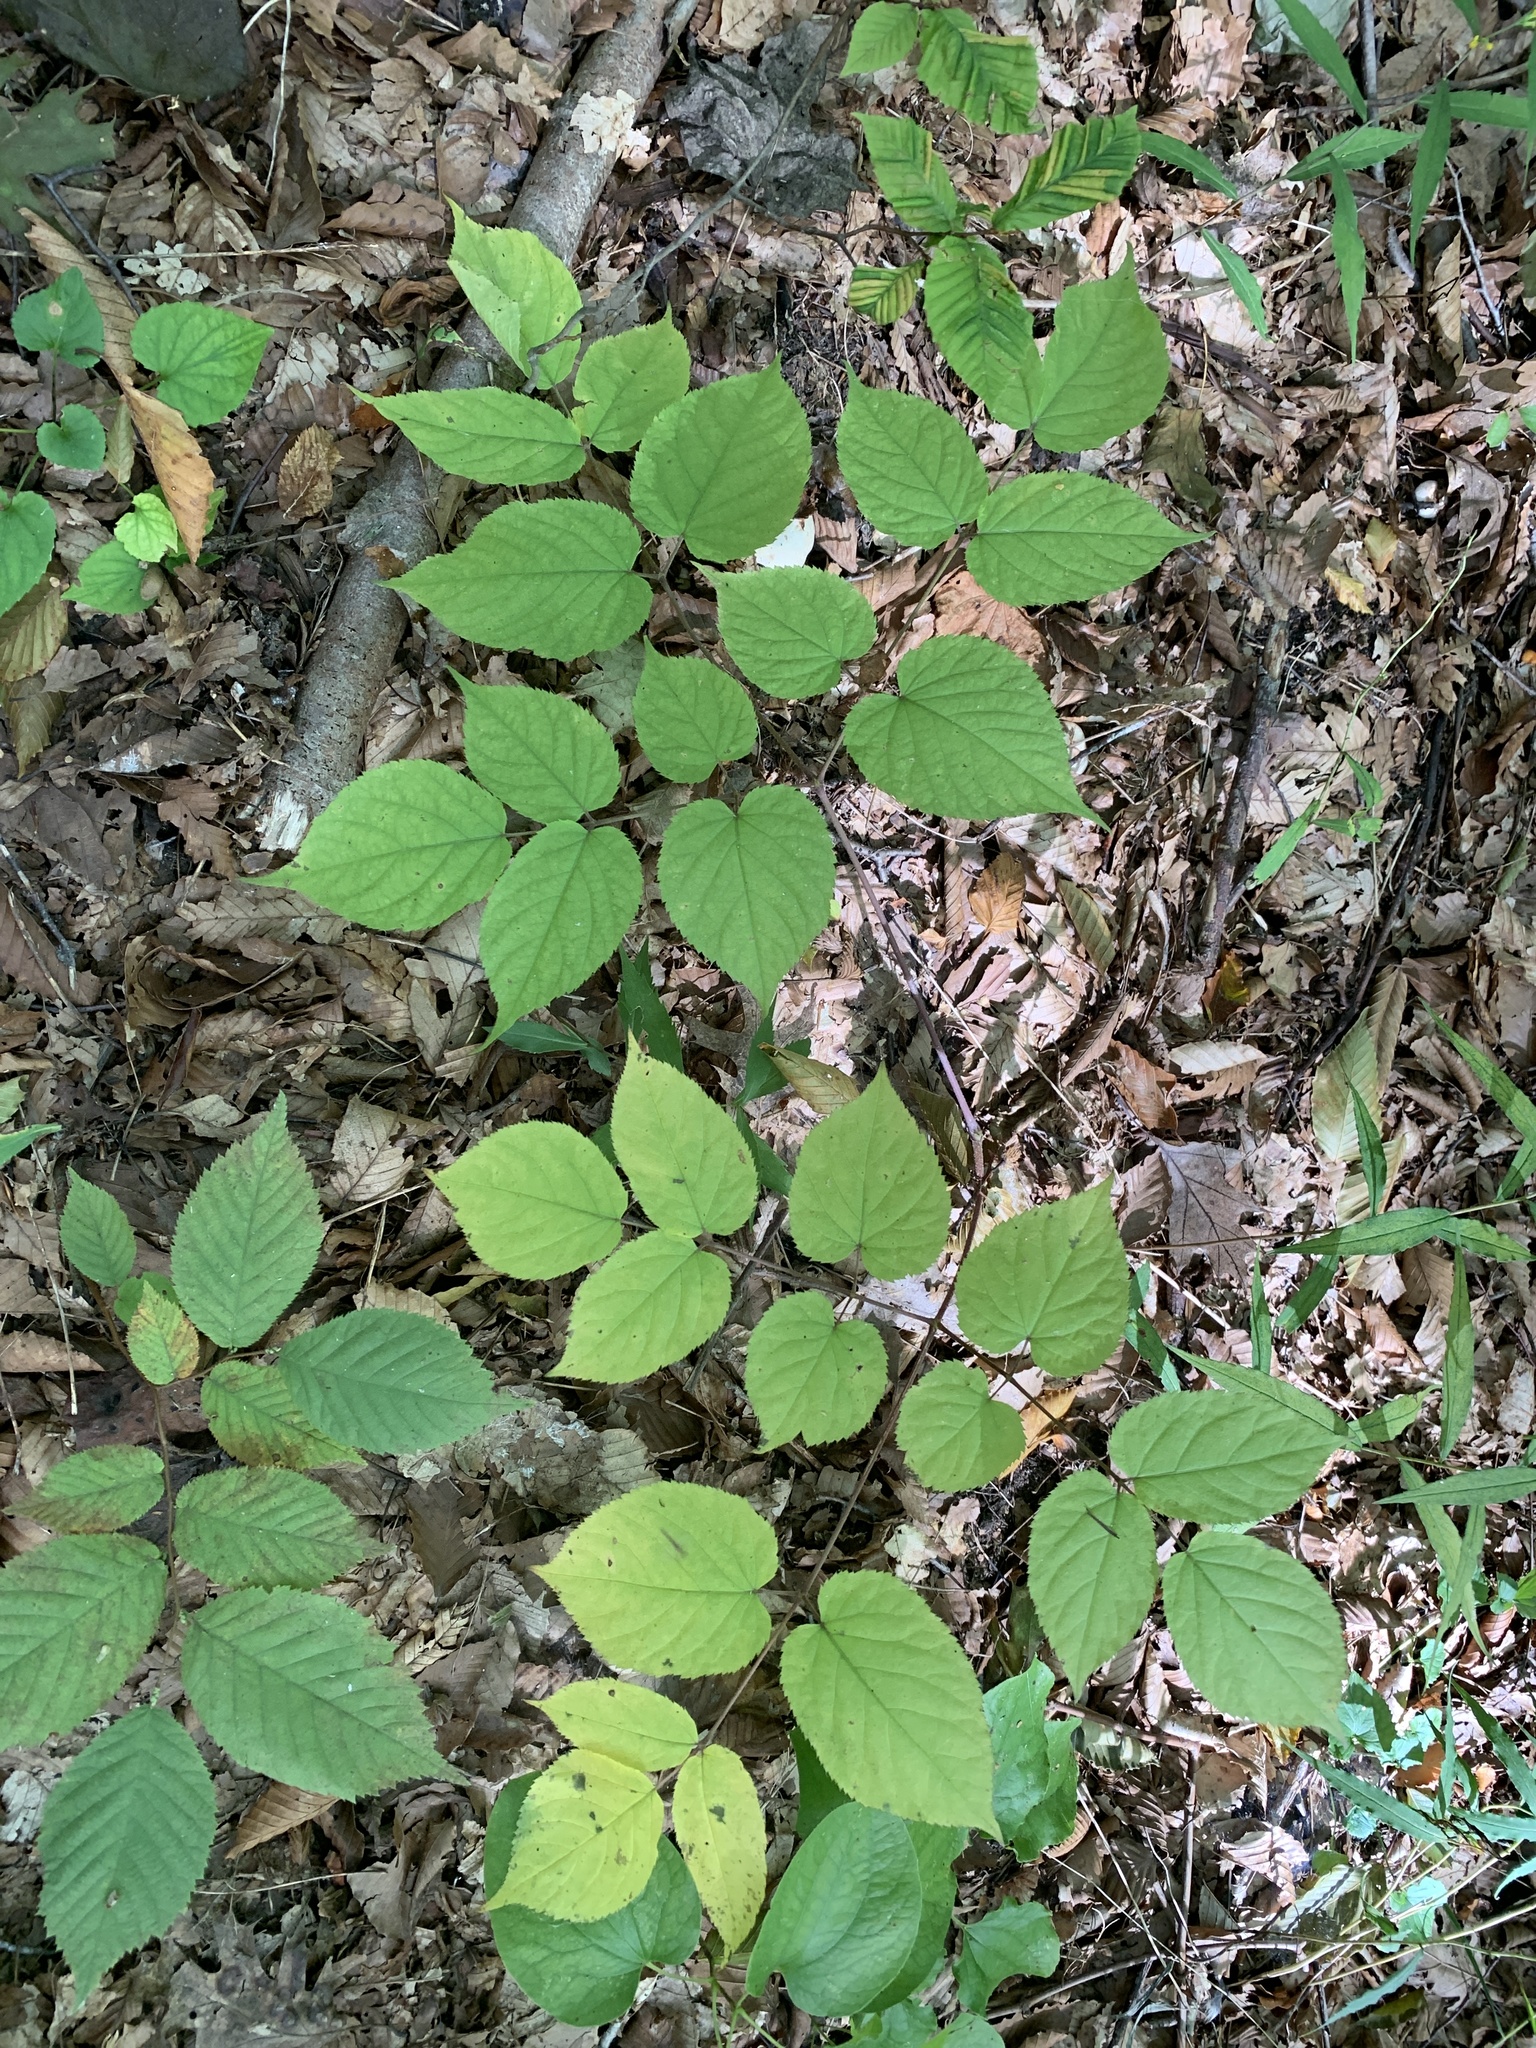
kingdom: Plantae
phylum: Tracheophyta
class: Magnoliopsida
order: Apiales
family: Araliaceae
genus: Aralia
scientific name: Aralia racemosa
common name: American-spikenard
